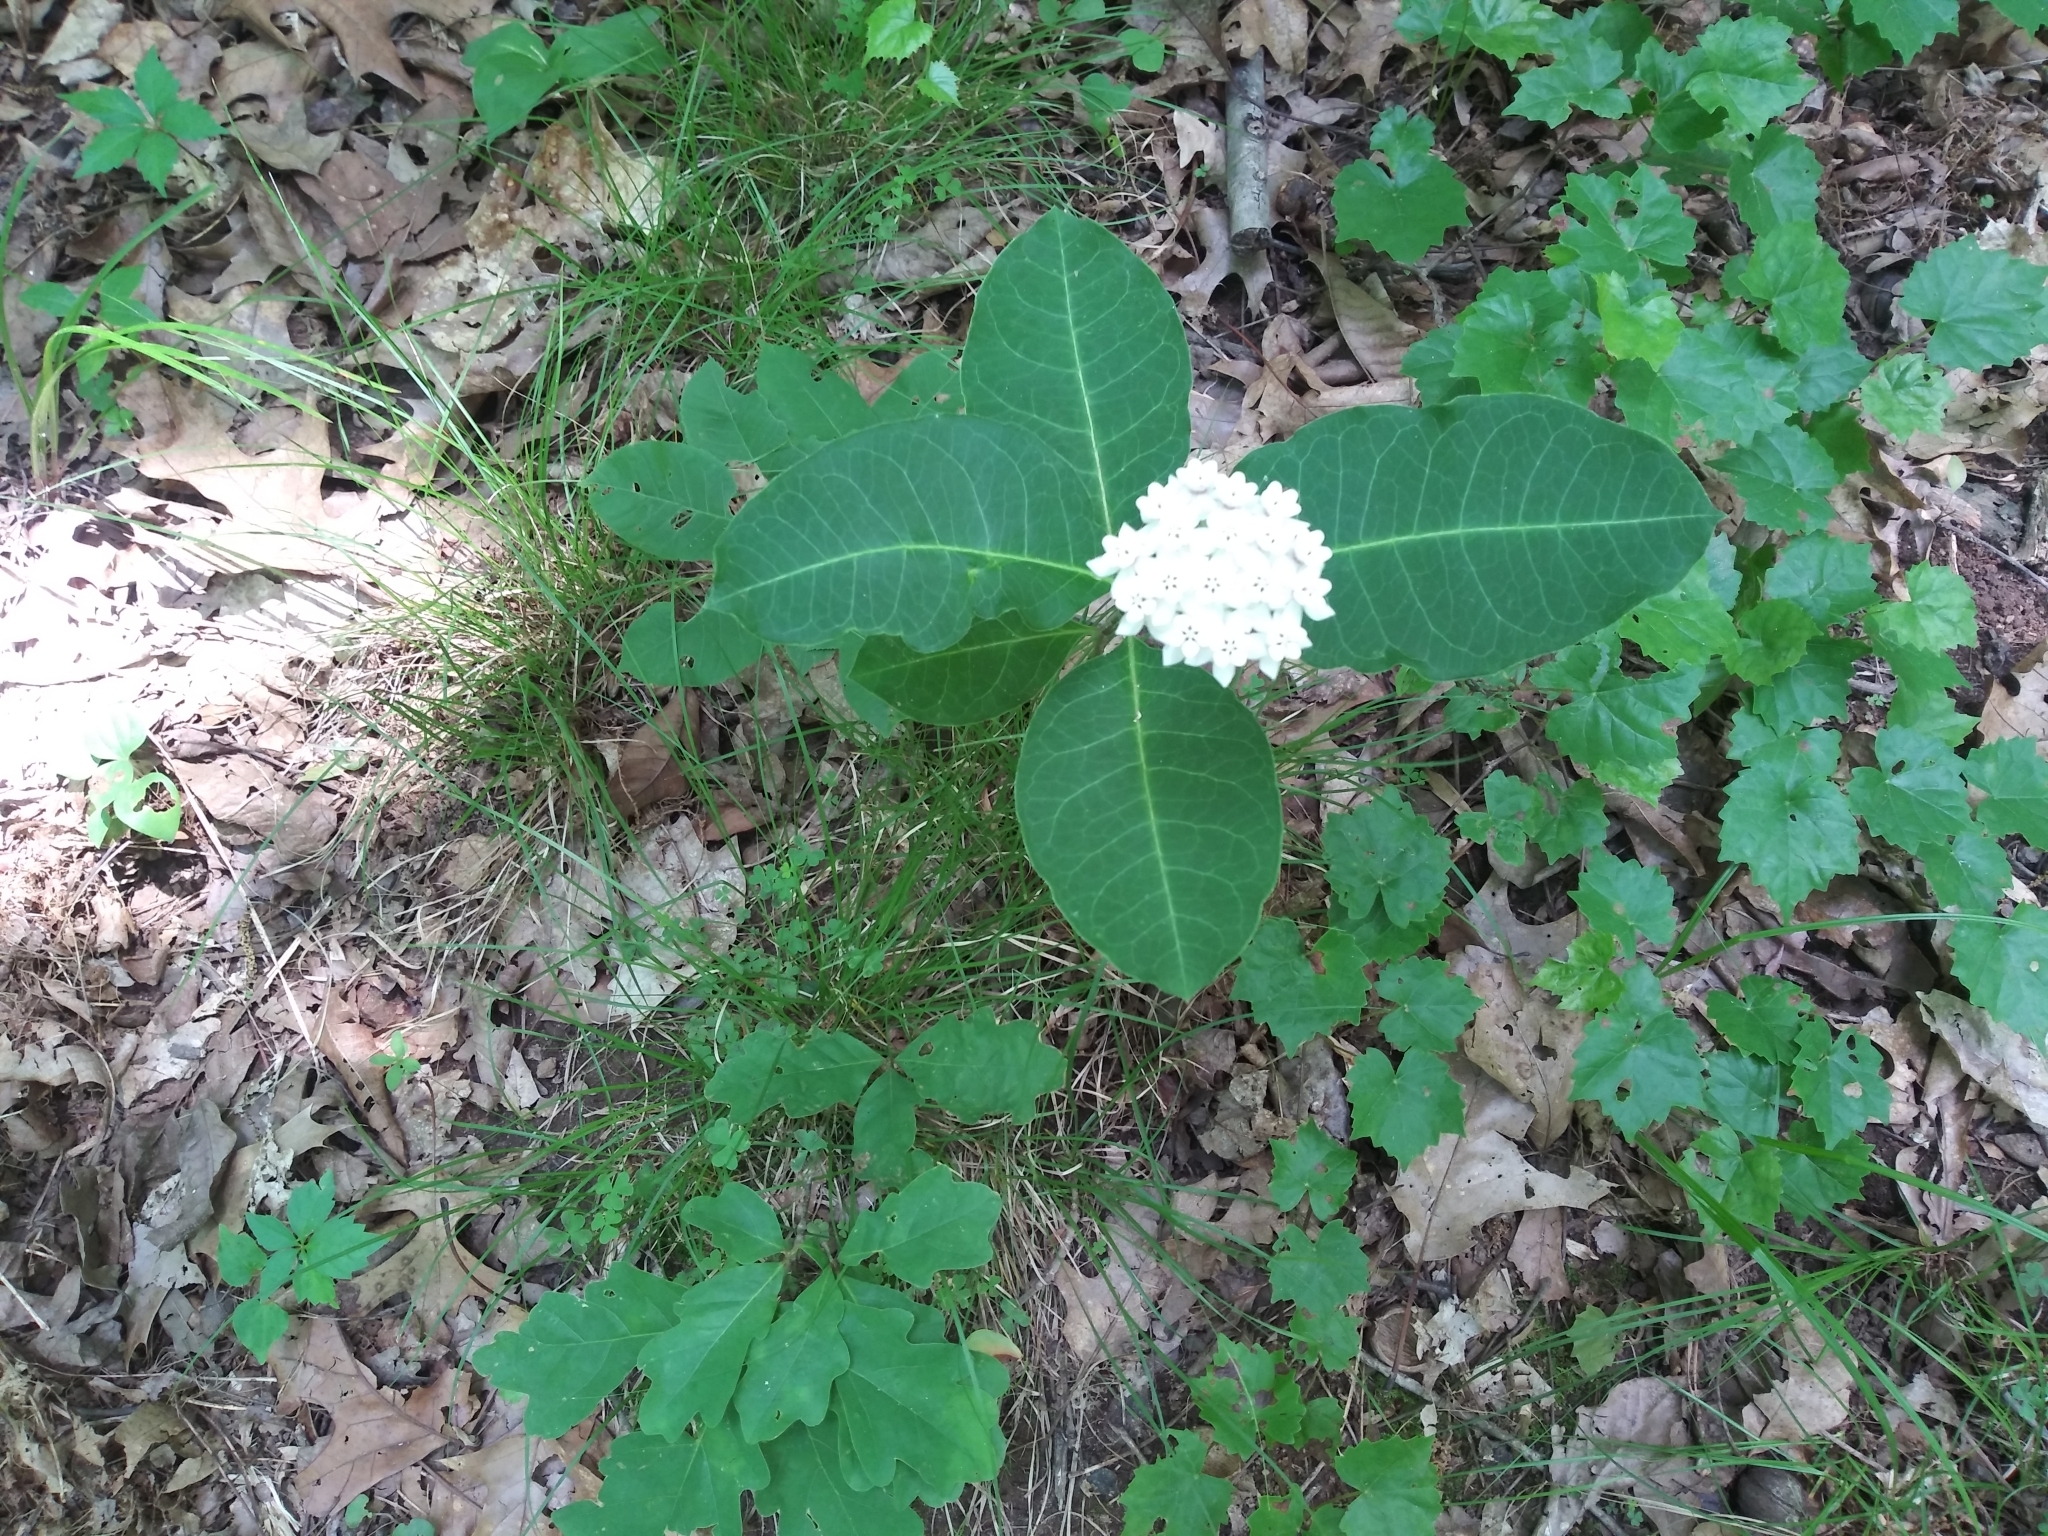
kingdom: Plantae
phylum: Tracheophyta
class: Magnoliopsida
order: Gentianales
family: Apocynaceae
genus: Asclepias
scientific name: Asclepias variegata
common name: Variegated milkweed
